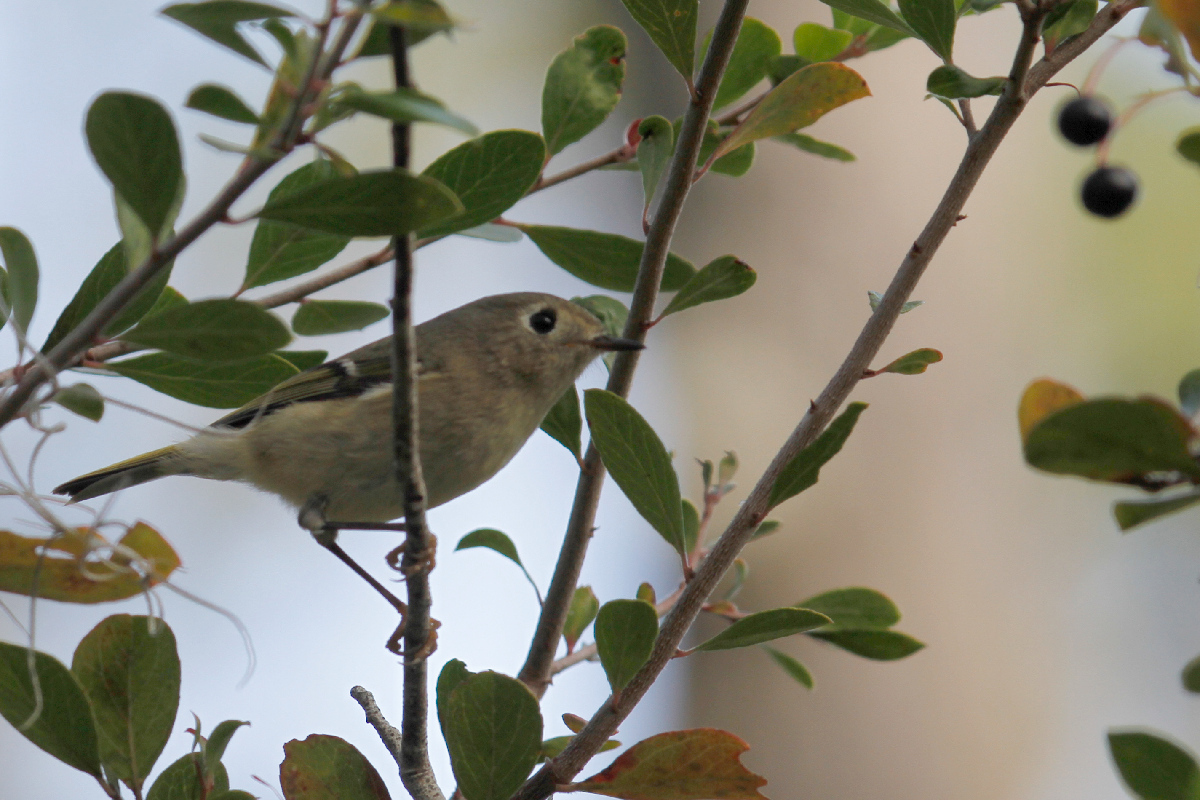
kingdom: Animalia
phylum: Chordata
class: Aves
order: Passeriformes
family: Regulidae
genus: Regulus
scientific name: Regulus calendula
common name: Ruby-crowned kinglet
